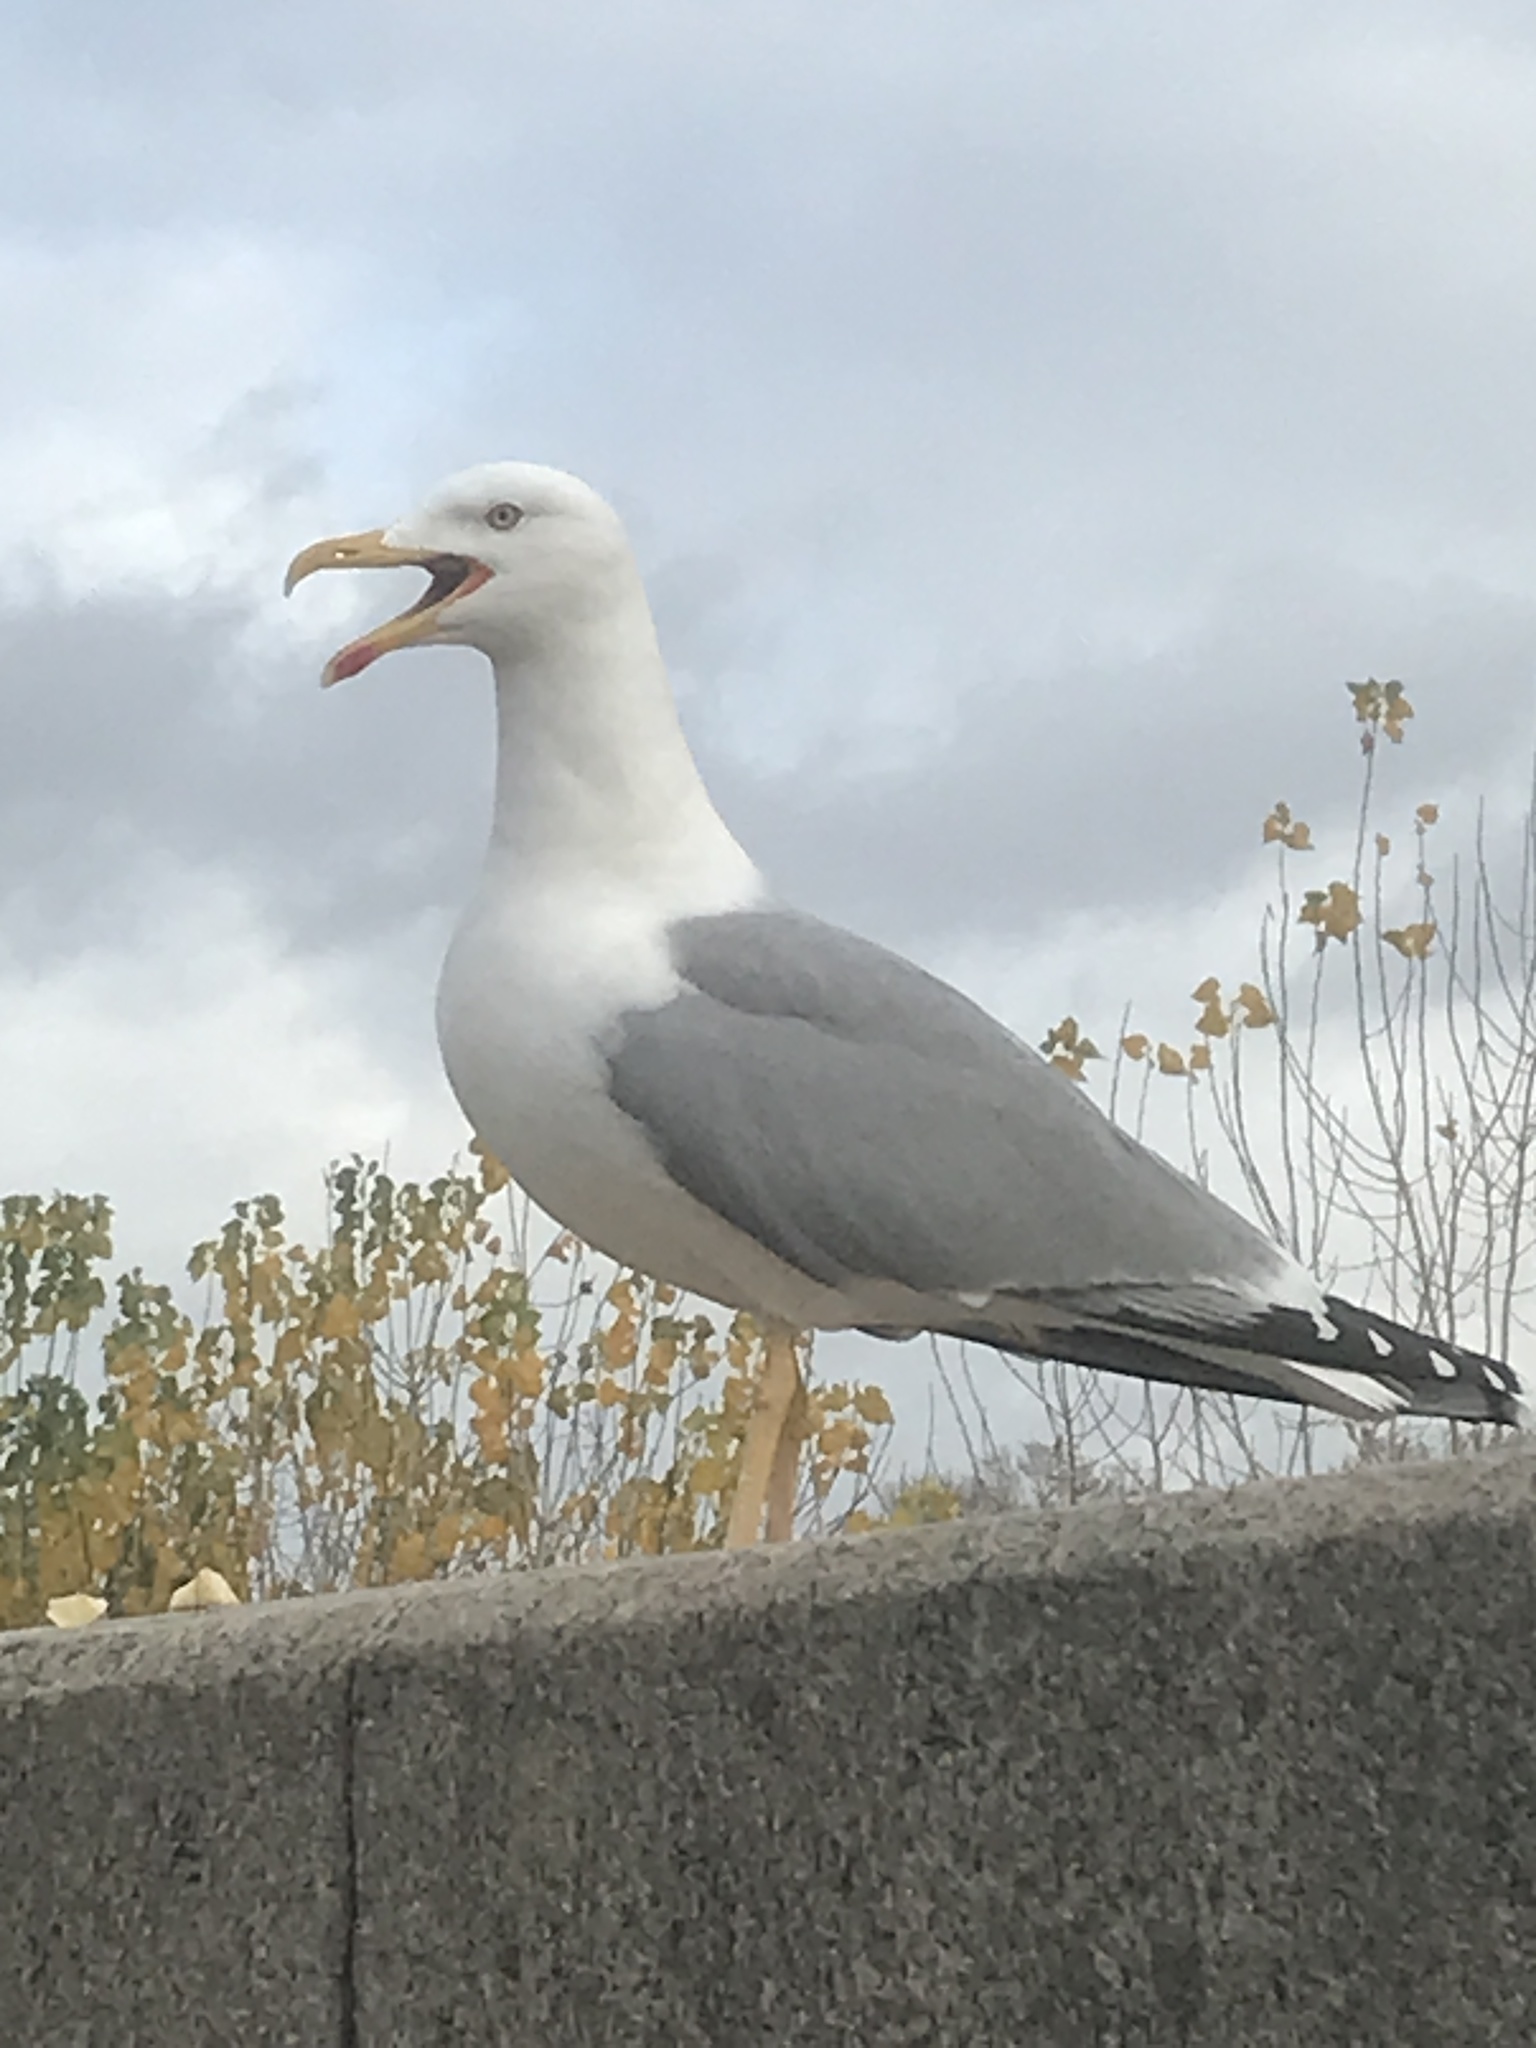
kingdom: Animalia
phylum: Chordata
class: Aves
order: Charadriiformes
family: Laridae
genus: Larus
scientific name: Larus michahellis
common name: Yellow-legged gull
